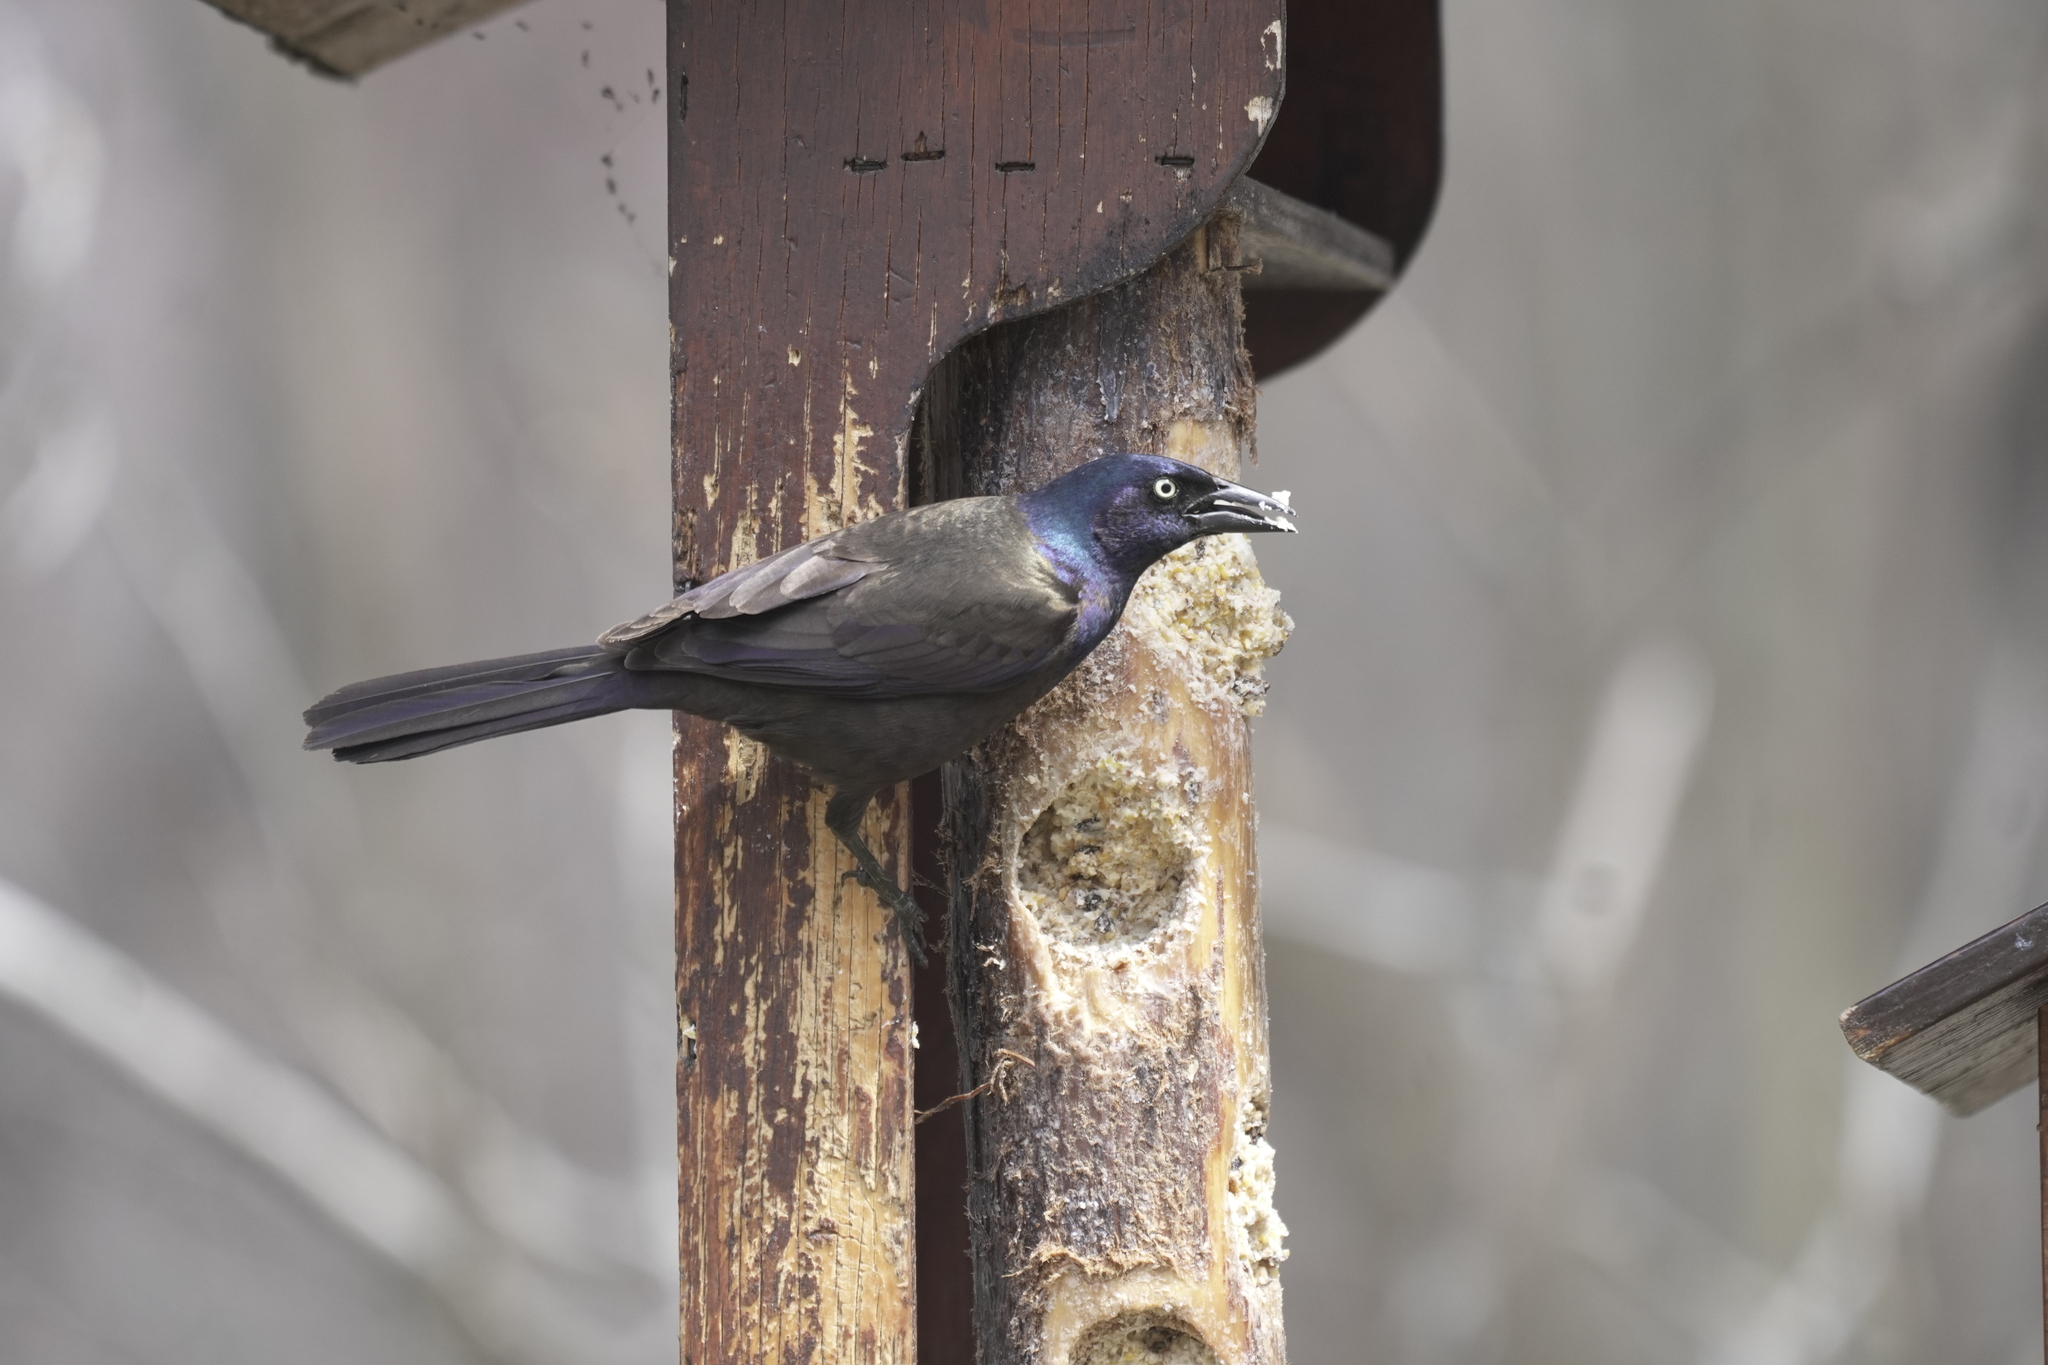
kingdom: Animalia
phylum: Chordata
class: Aves
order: Passeriformes
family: Icteridae
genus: Quiscalus
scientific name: Quiscalus quiscula
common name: Common grackle
